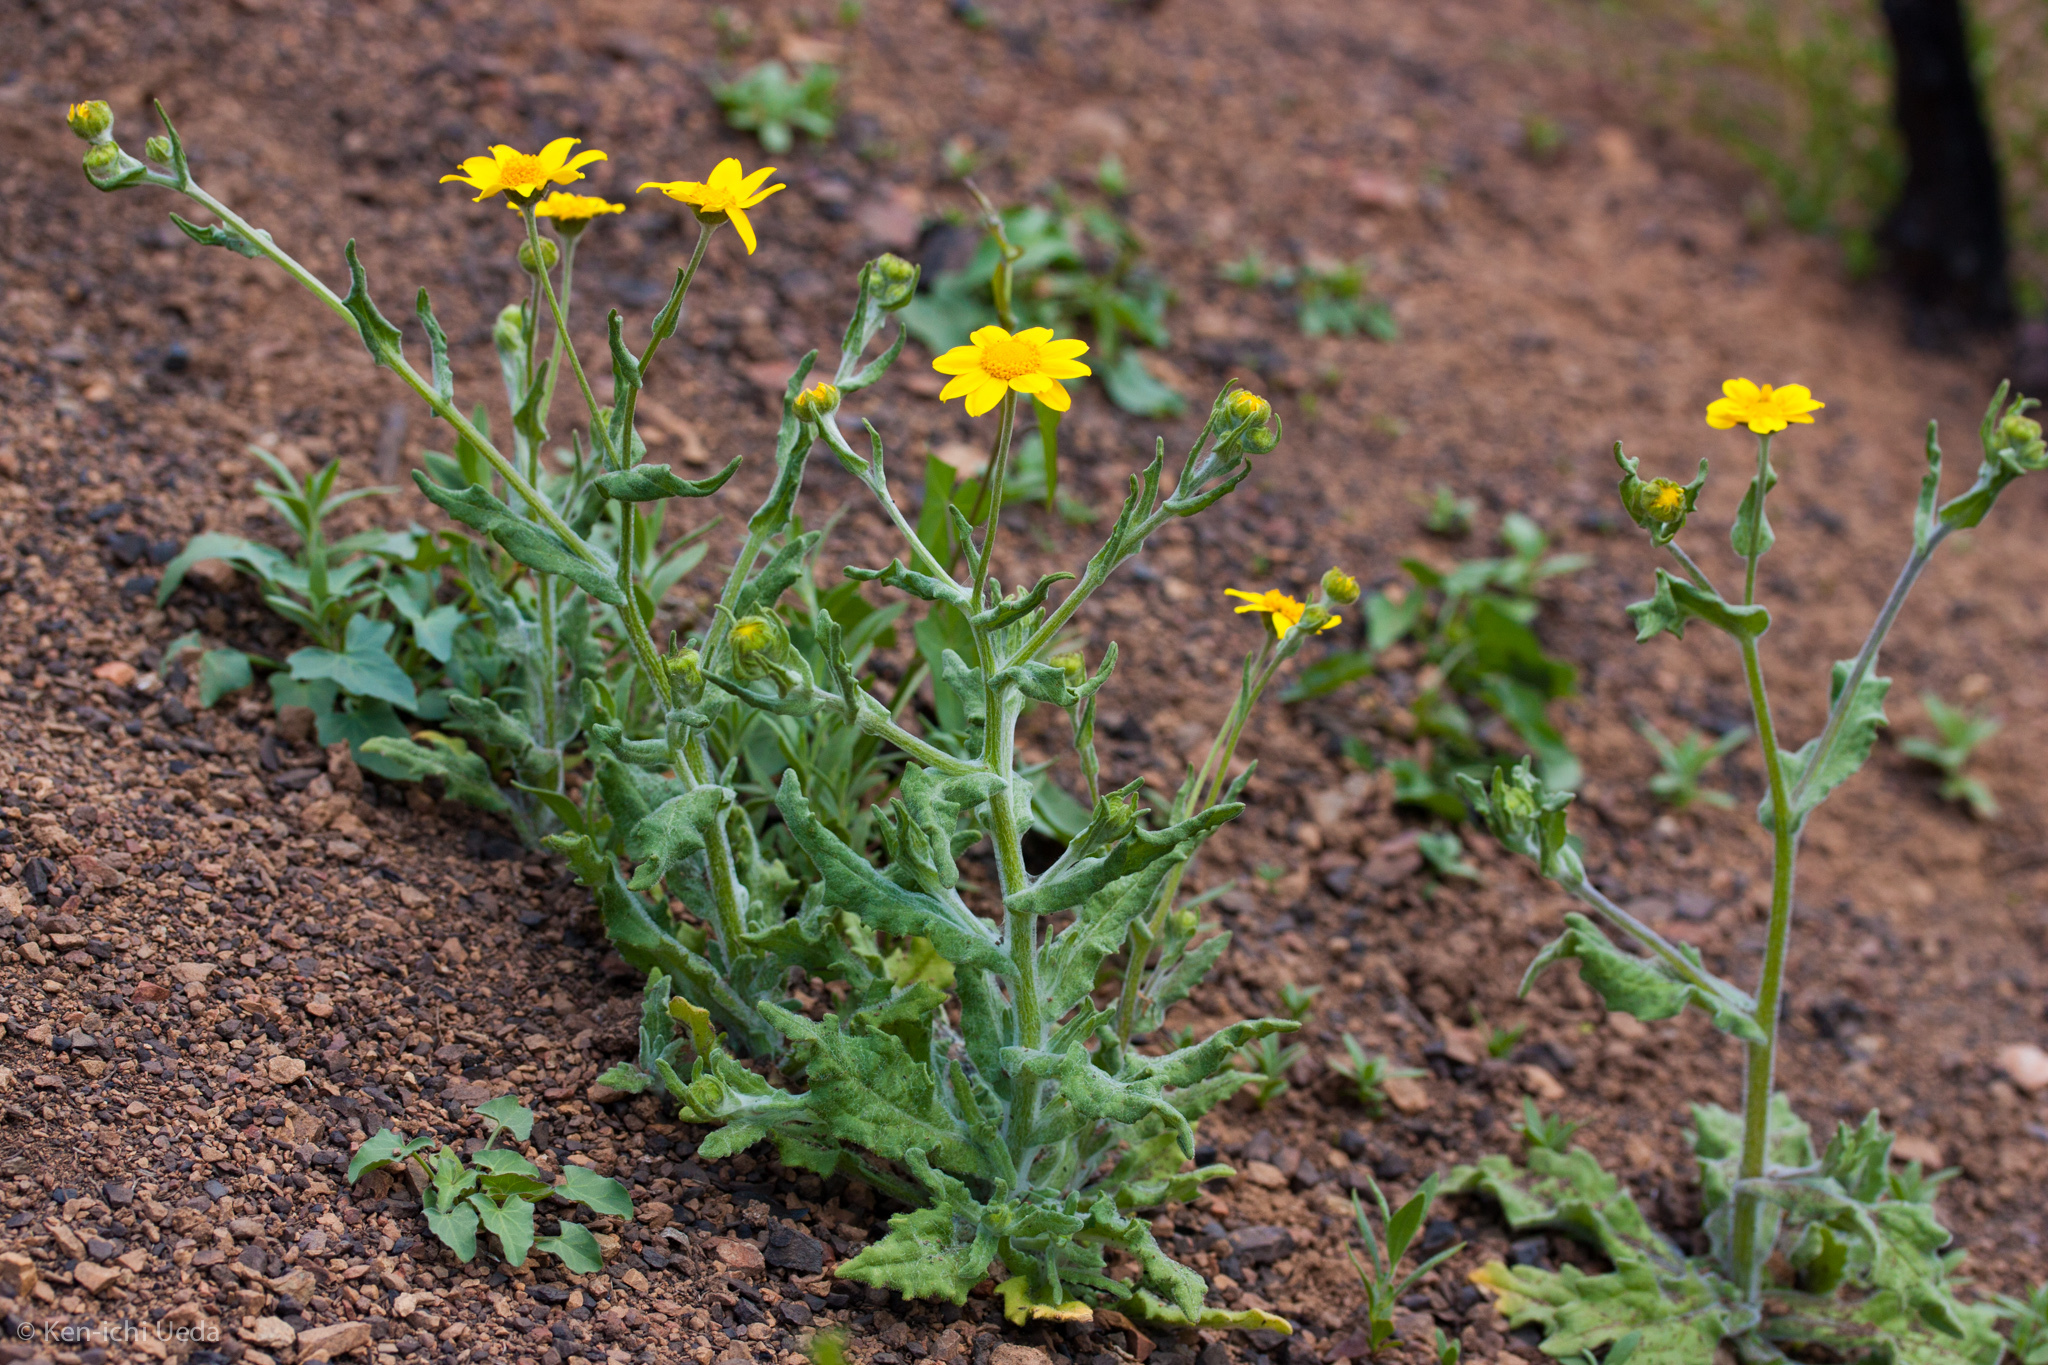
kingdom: Plantae
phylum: Tracheophyta
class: Magnoliopsida
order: Asterales
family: Asteraceae
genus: Monolopia
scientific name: Monolopia gracilens
